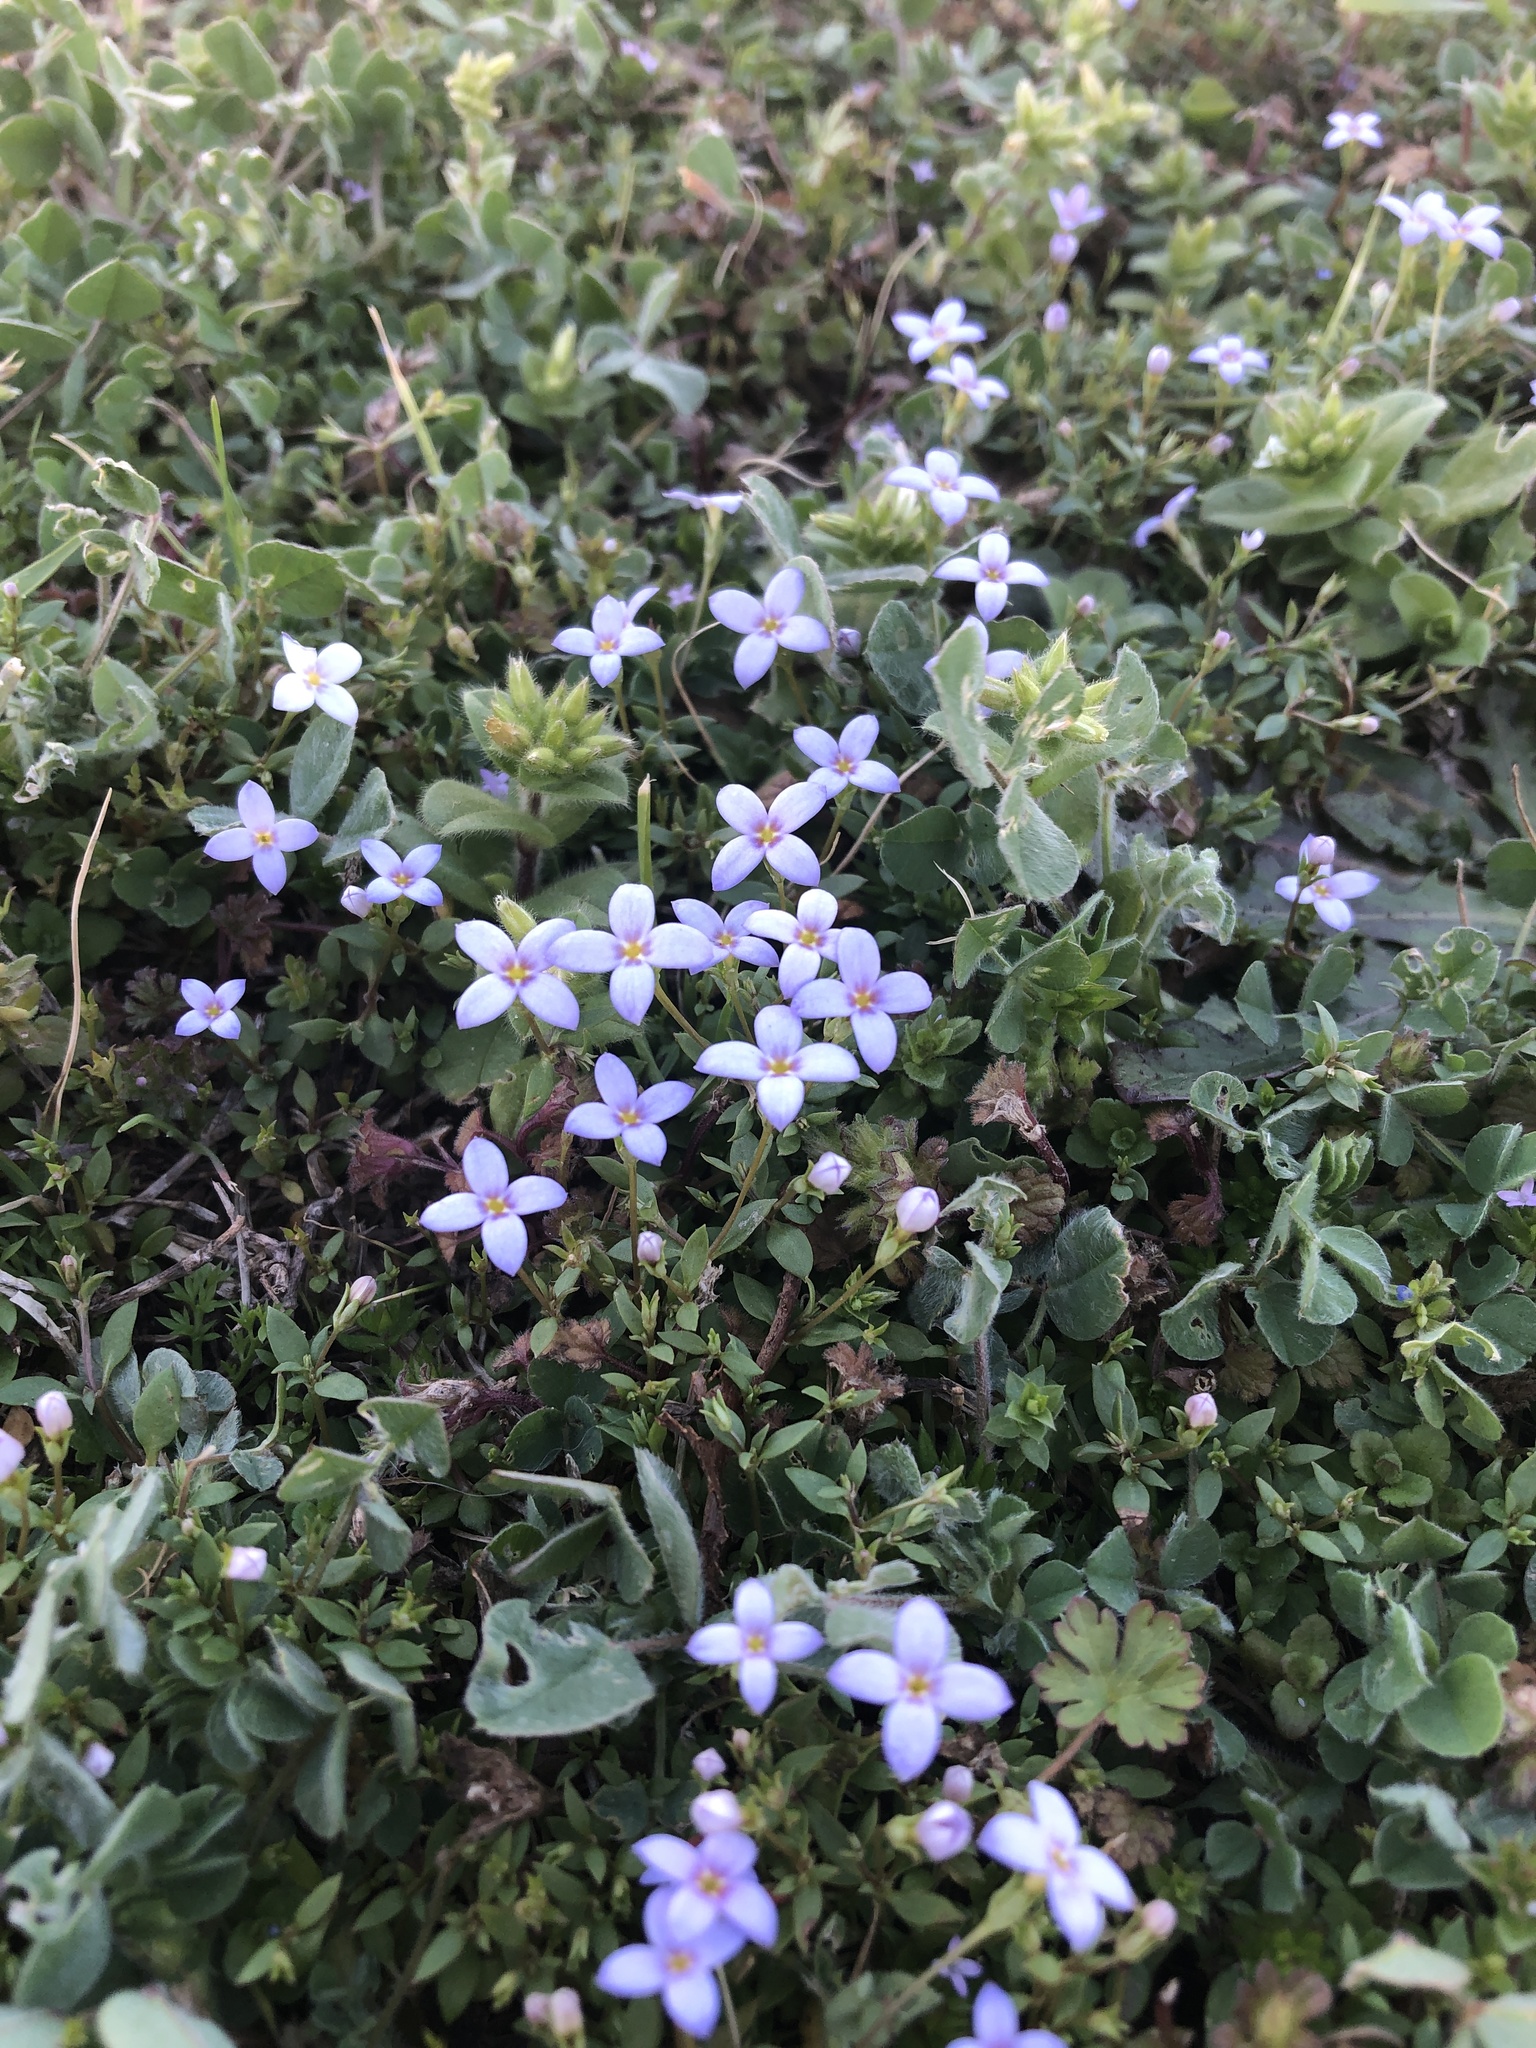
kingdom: Plantae
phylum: Tracheophyta
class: Magnoliopsida
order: Gentianales
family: Rubiaceae
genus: Houstonia
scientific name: Houstonia pusilla
